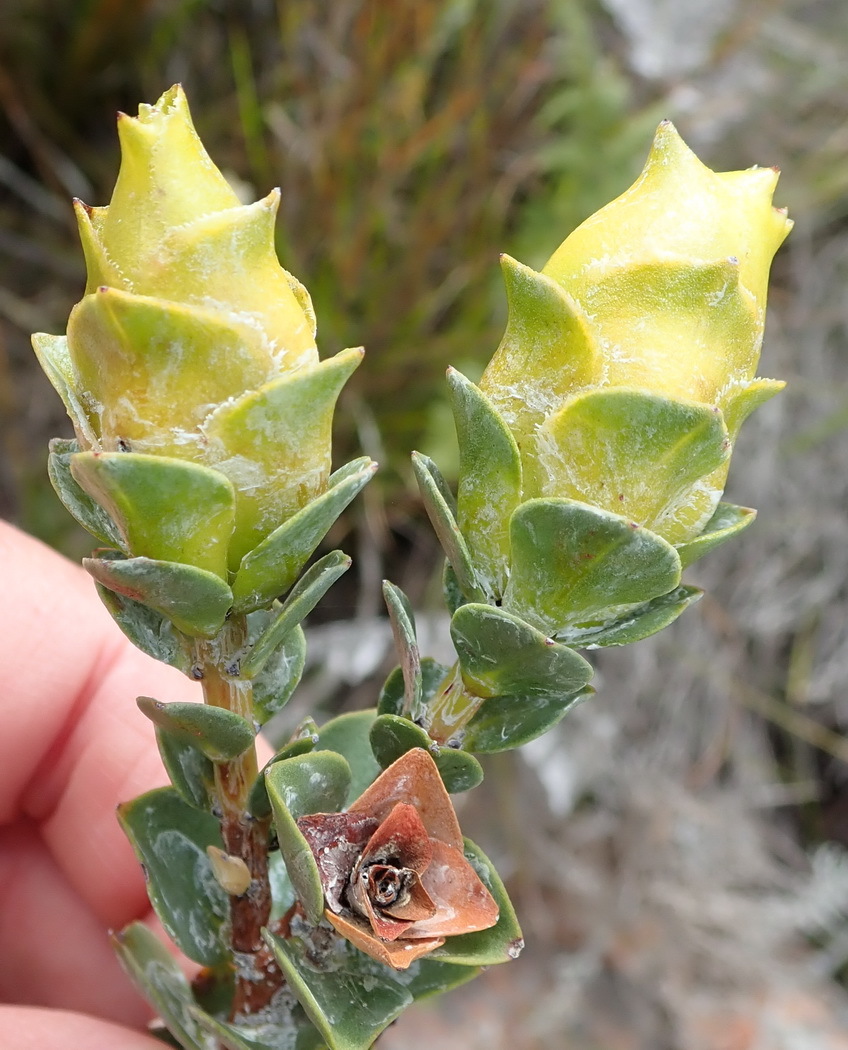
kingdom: Plantae
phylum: Tracheophyta
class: Magnoliopsida
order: Myrtales
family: Penaeaceae
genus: Saltera
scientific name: Saltera sarcocolla
